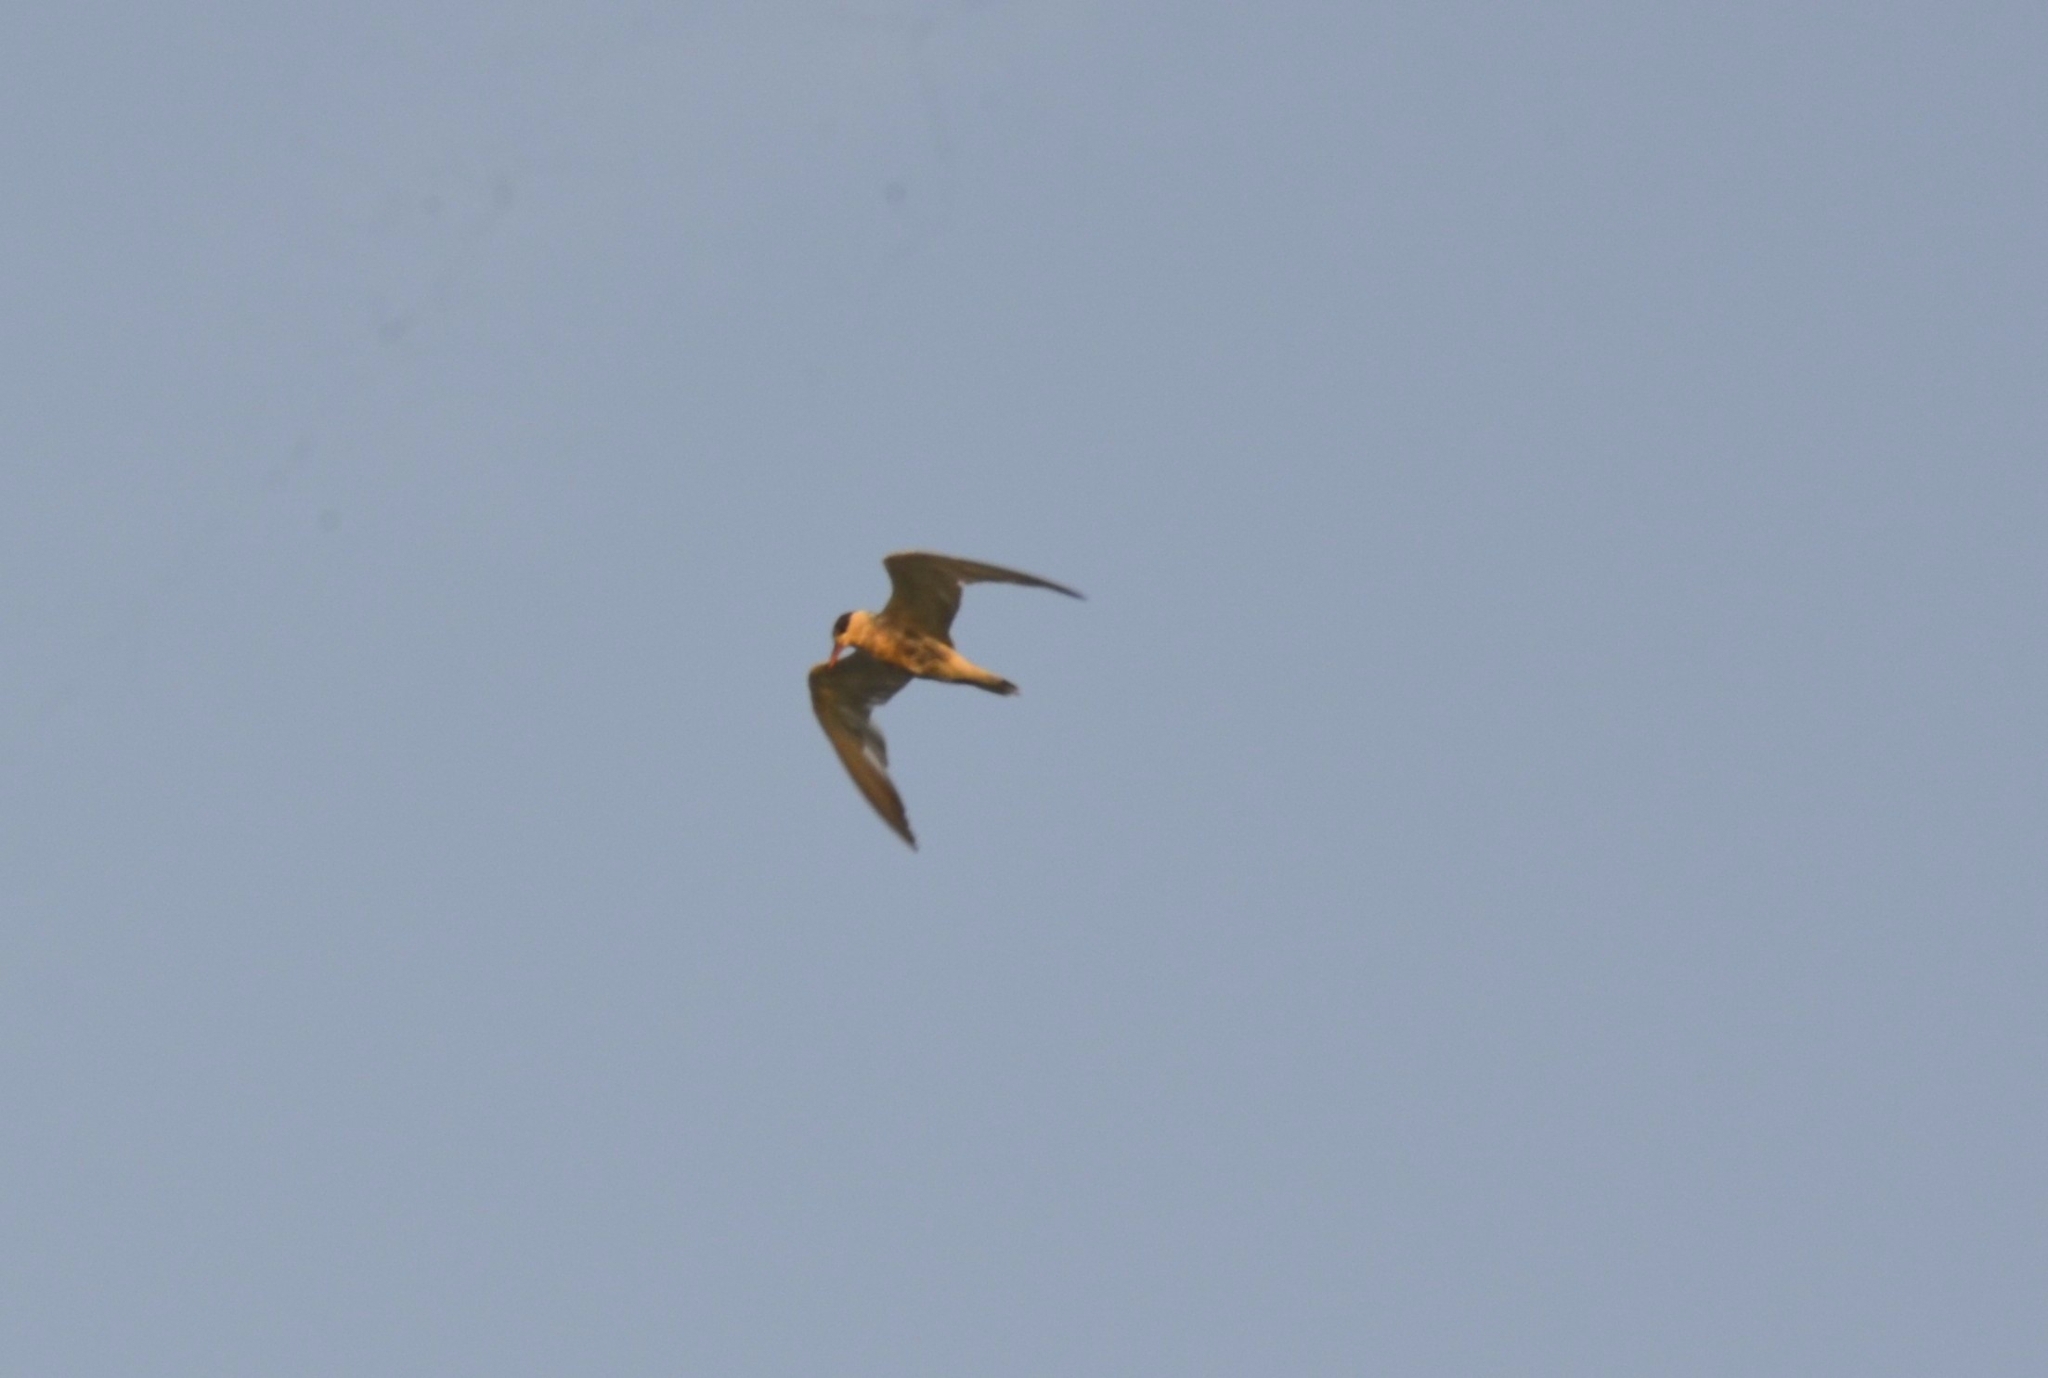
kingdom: Animalia
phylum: Chordata
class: Aves
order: Charadriiformes
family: Laridae
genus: Chlidonias
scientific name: Chlidonias hybrida
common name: Whiskered tern
